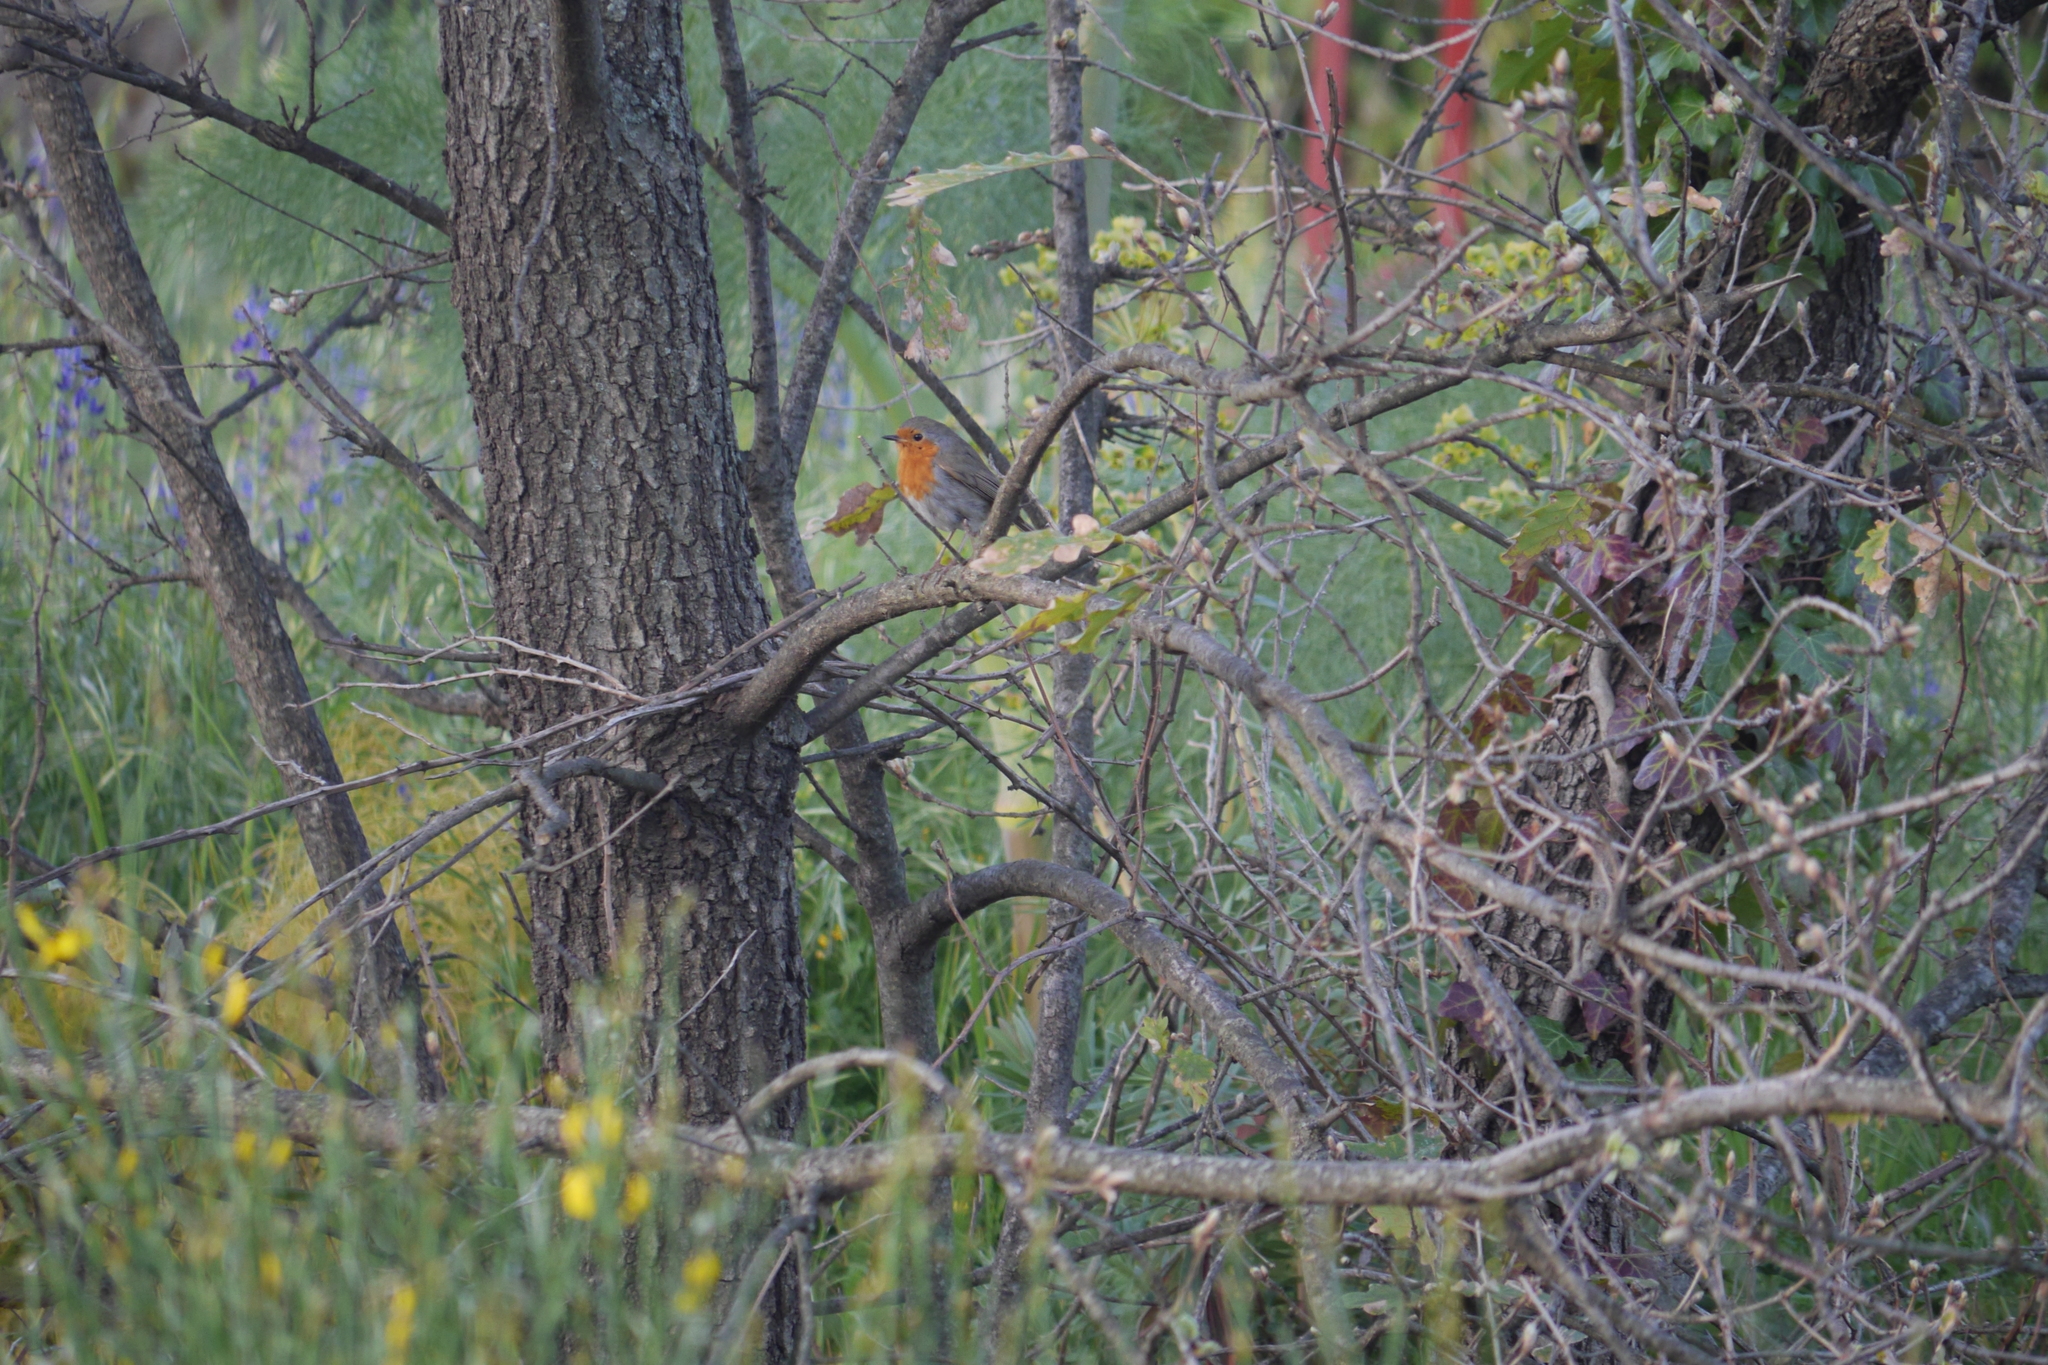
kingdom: Animalia
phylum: Chordata
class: Aves
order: Passeriformes
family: Muscicapidae
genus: Erithacus
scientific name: Erithacus rubecula
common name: European robin
